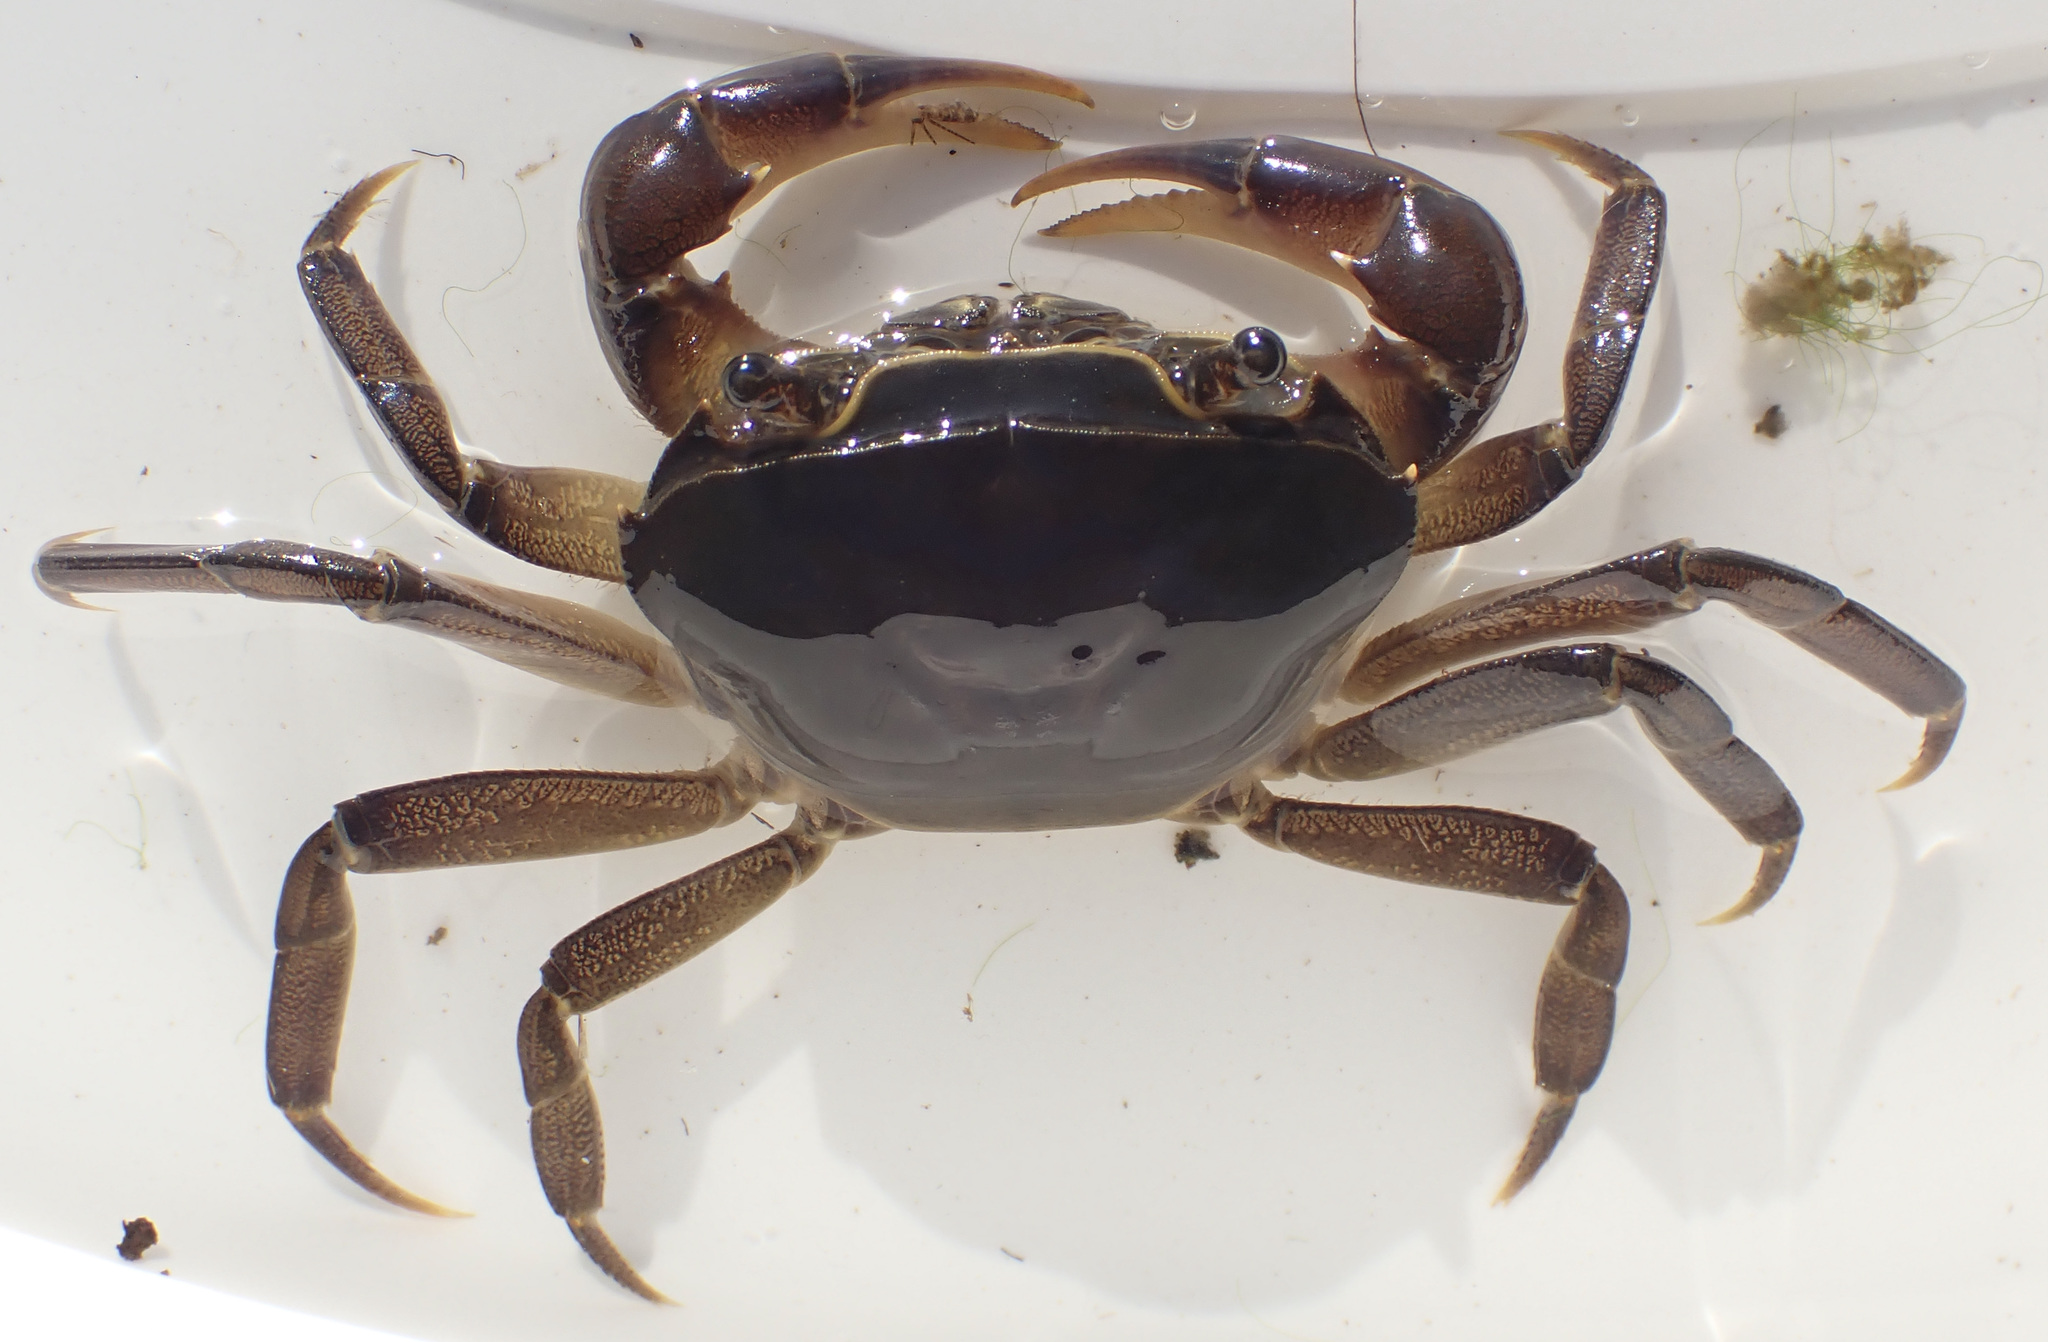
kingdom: Animalia
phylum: Arthropoda
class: Malacostraca
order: Decapoda
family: Potamonautidae
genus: Potamonautes
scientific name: Potamonautes bayonianus
